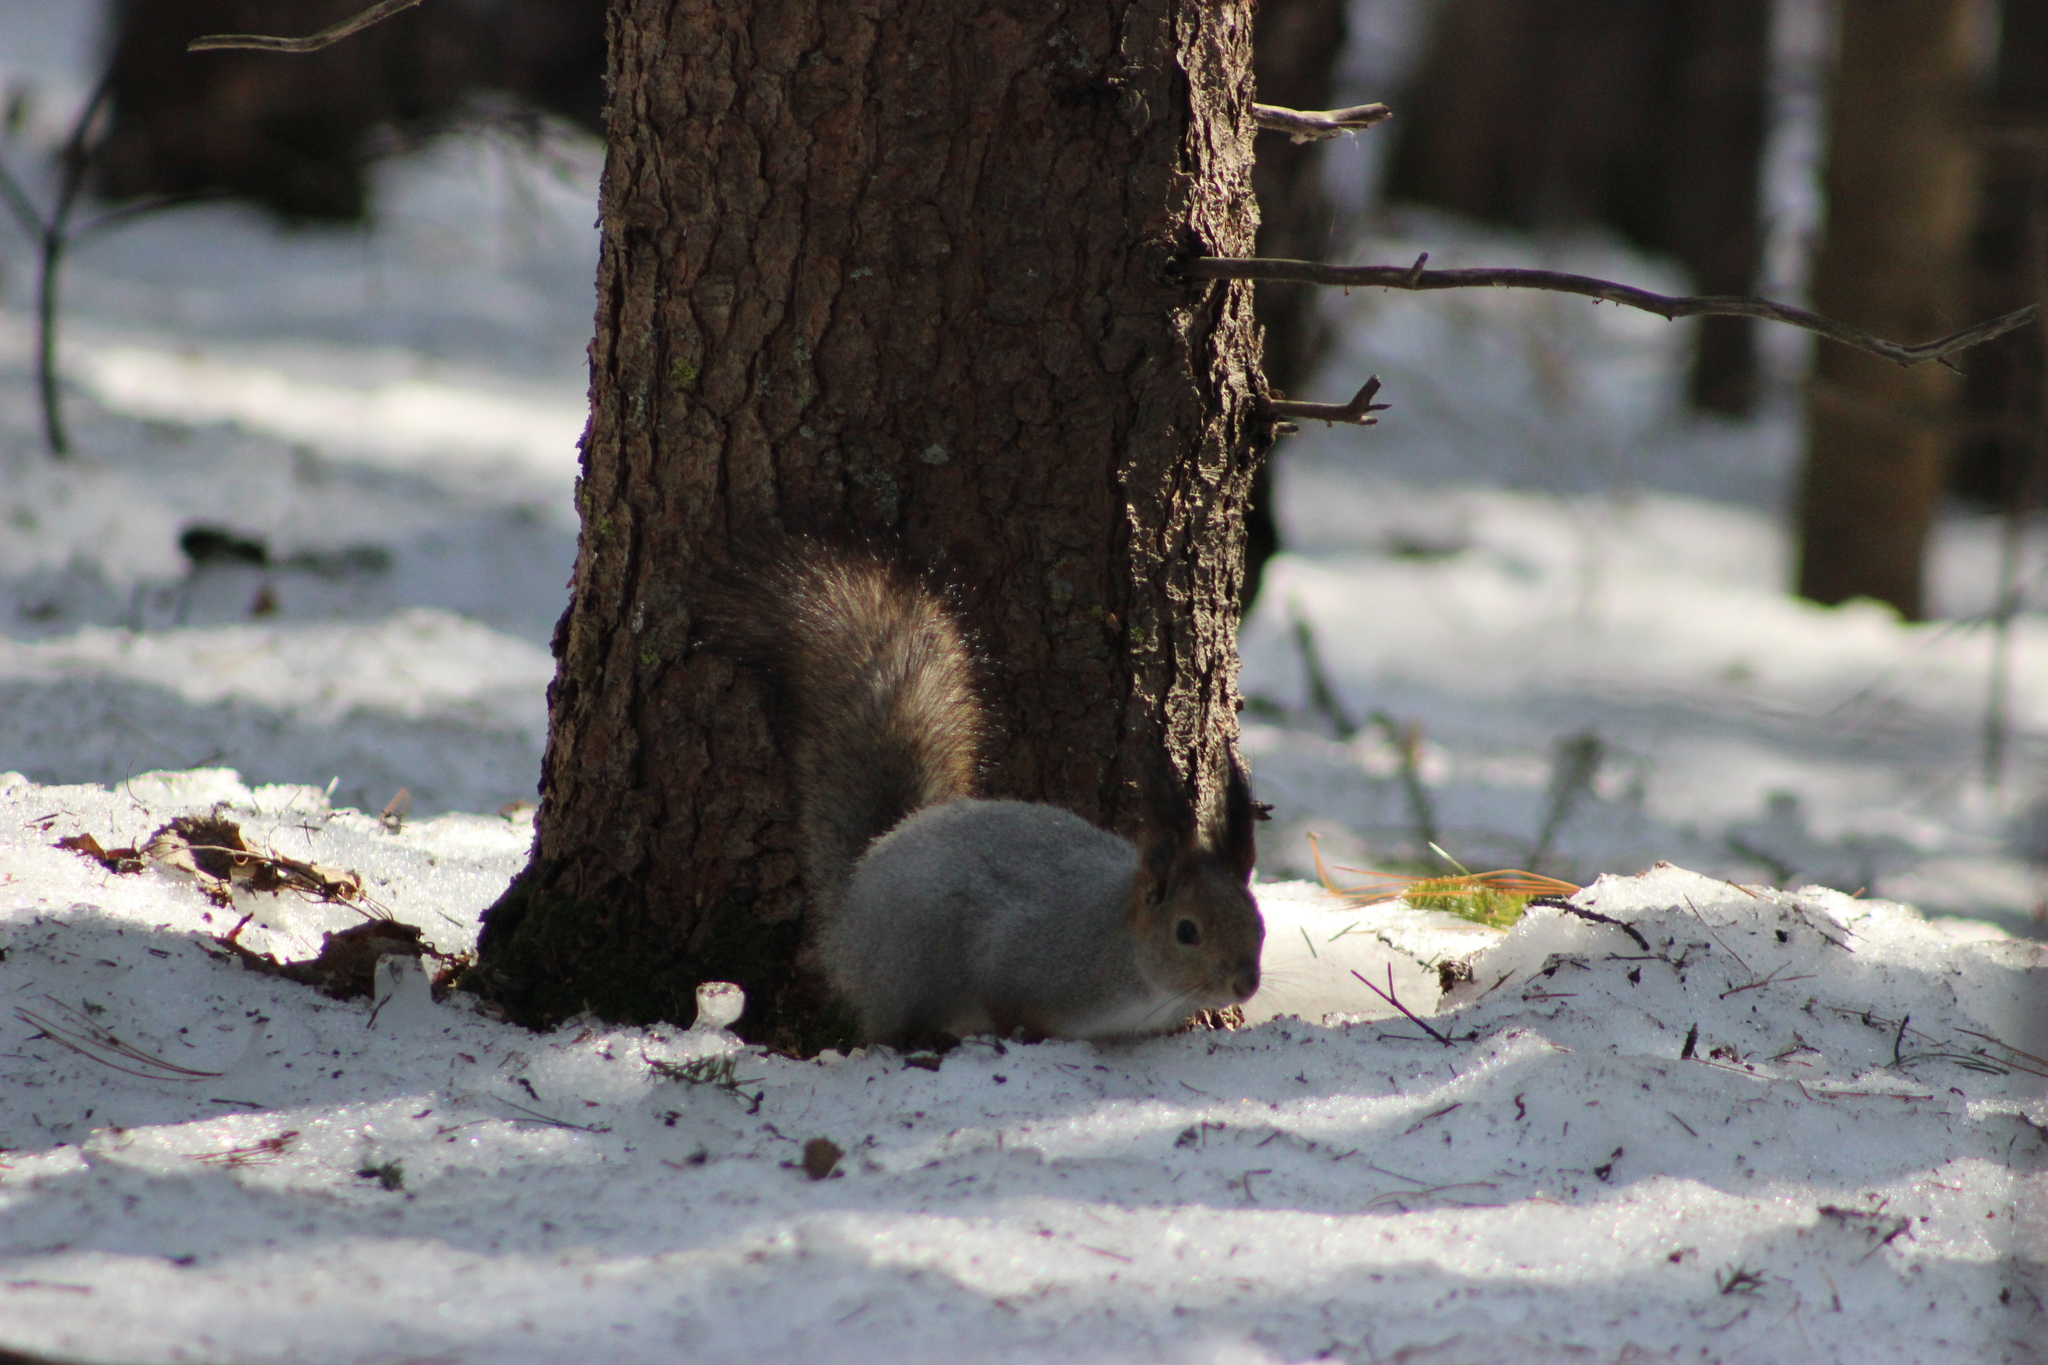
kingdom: Animalia
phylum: Chordata
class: Mammalia
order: Rodentia
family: Sciuridae
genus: Sciurus
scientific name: Sciurus vulgaris
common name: Eurasian red squirrel
